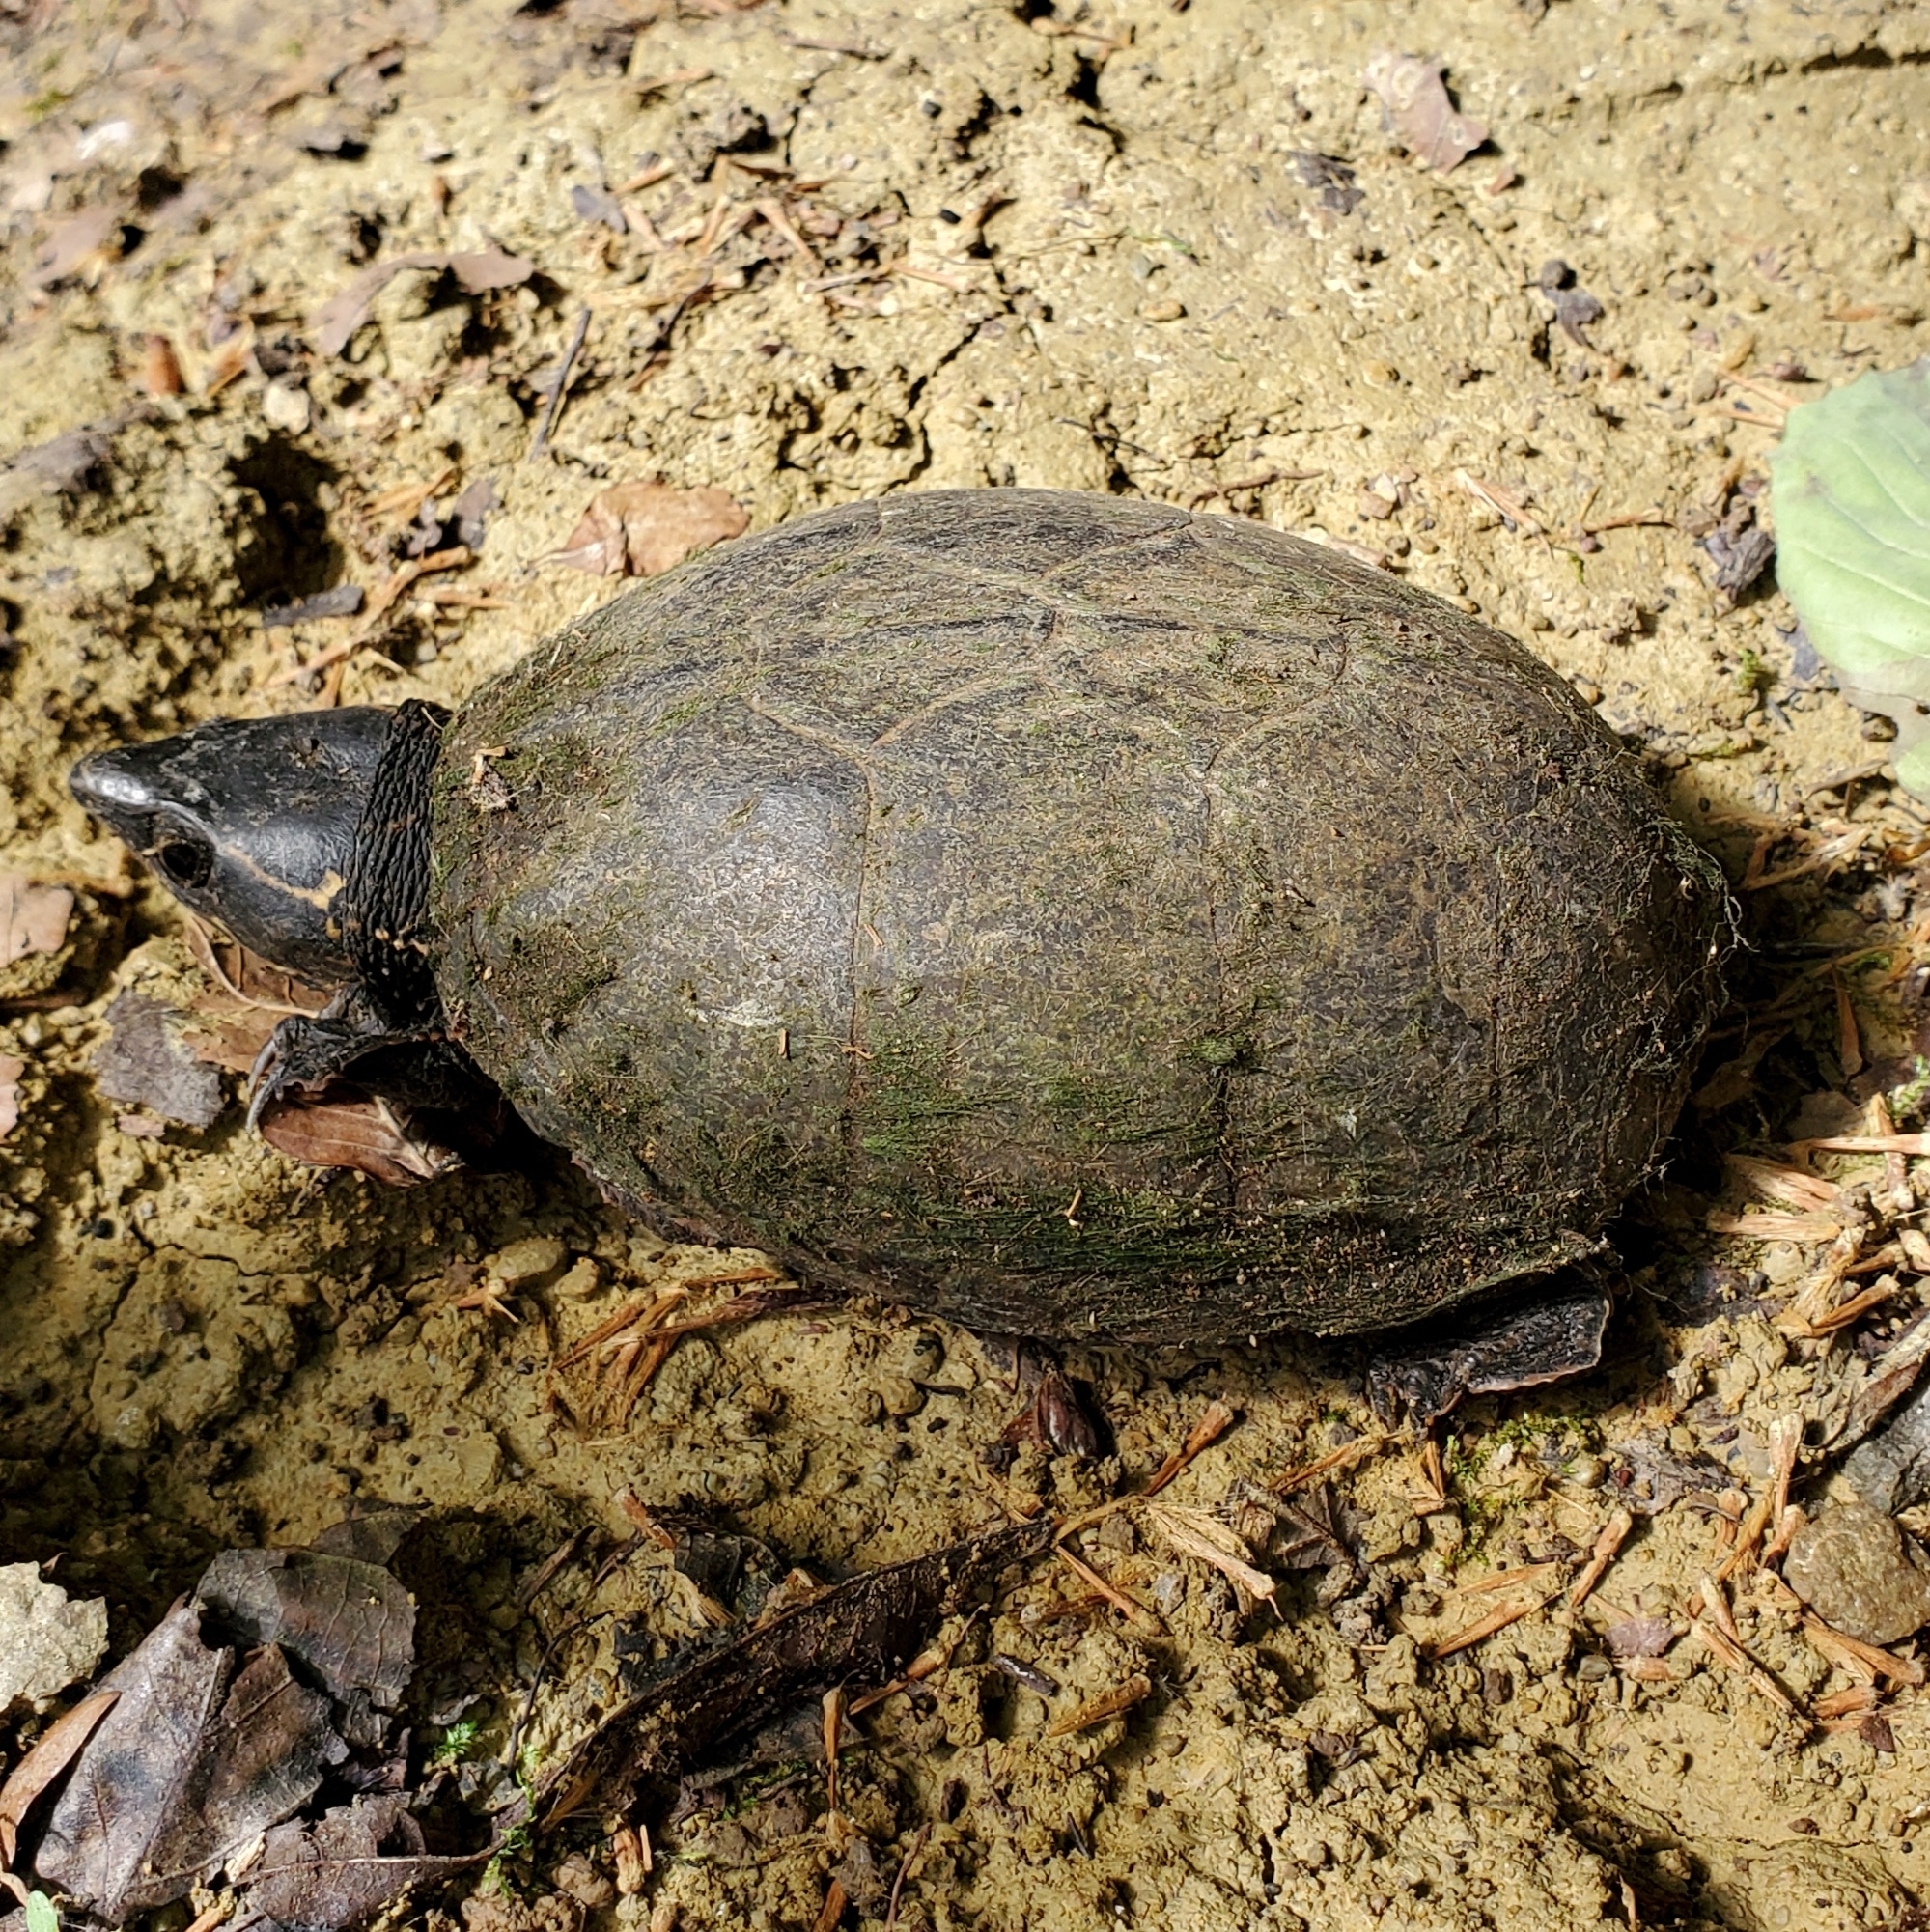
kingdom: Animalia
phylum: Chordata
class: Testudines
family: Kinosternidae
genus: Sternotherus
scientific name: Sternotherus odoratus
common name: Common musk turtle
